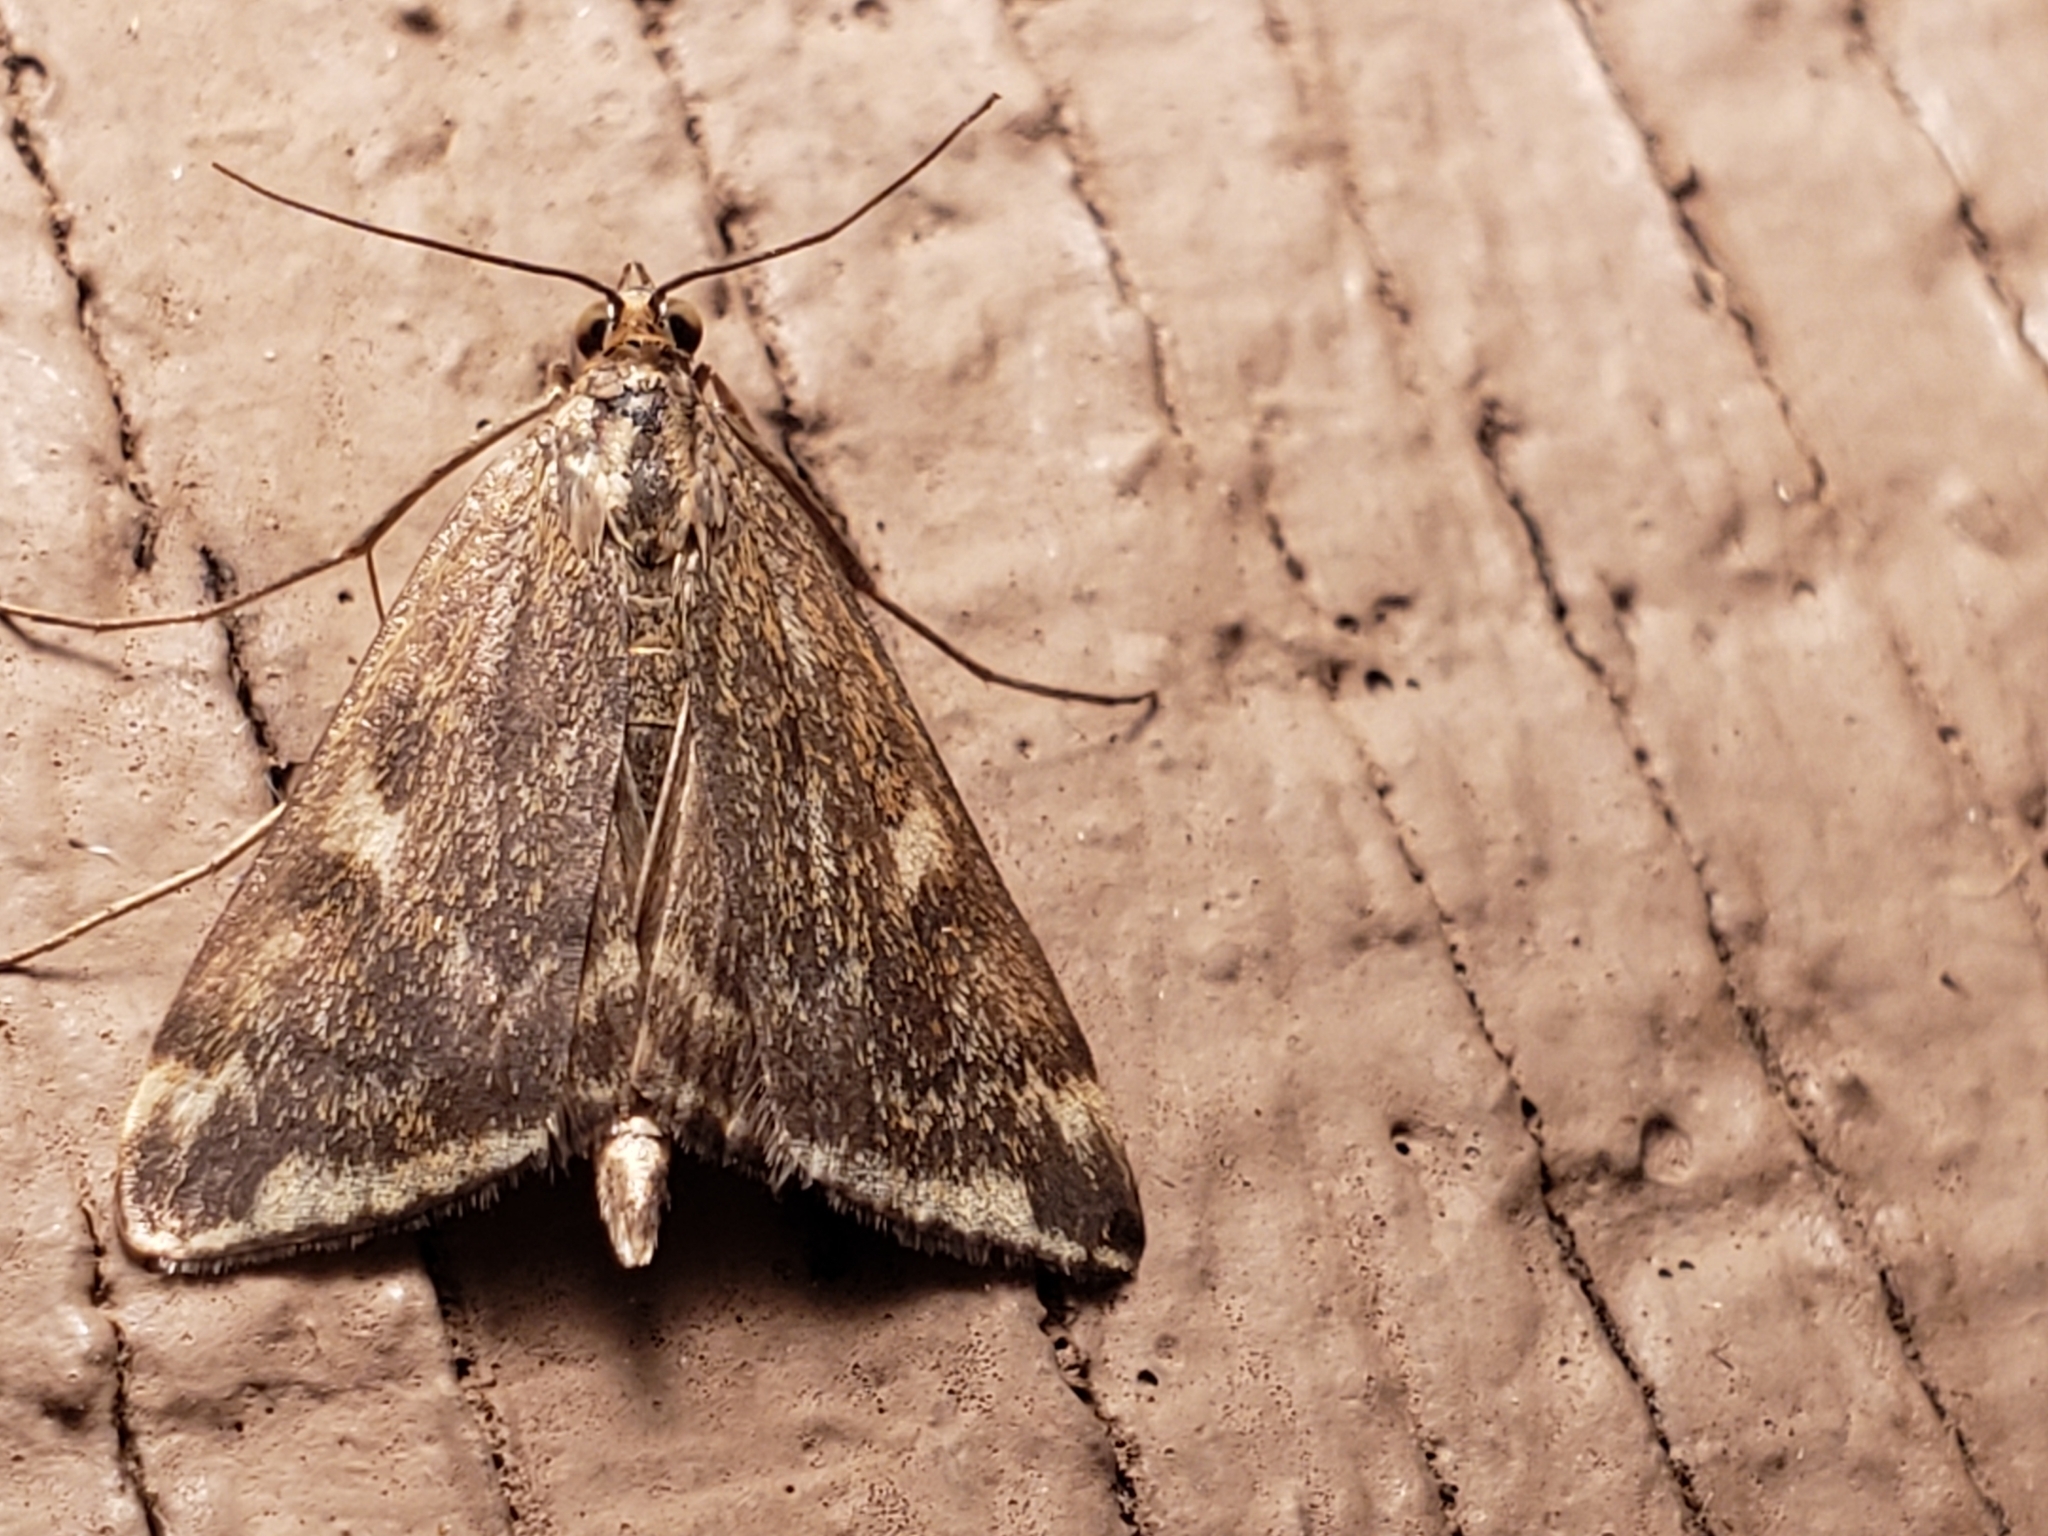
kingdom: Animalia
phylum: Arthropoda
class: Insecta
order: Lepidoptera
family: Crambidae
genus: Loxostege
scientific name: Loxostege
